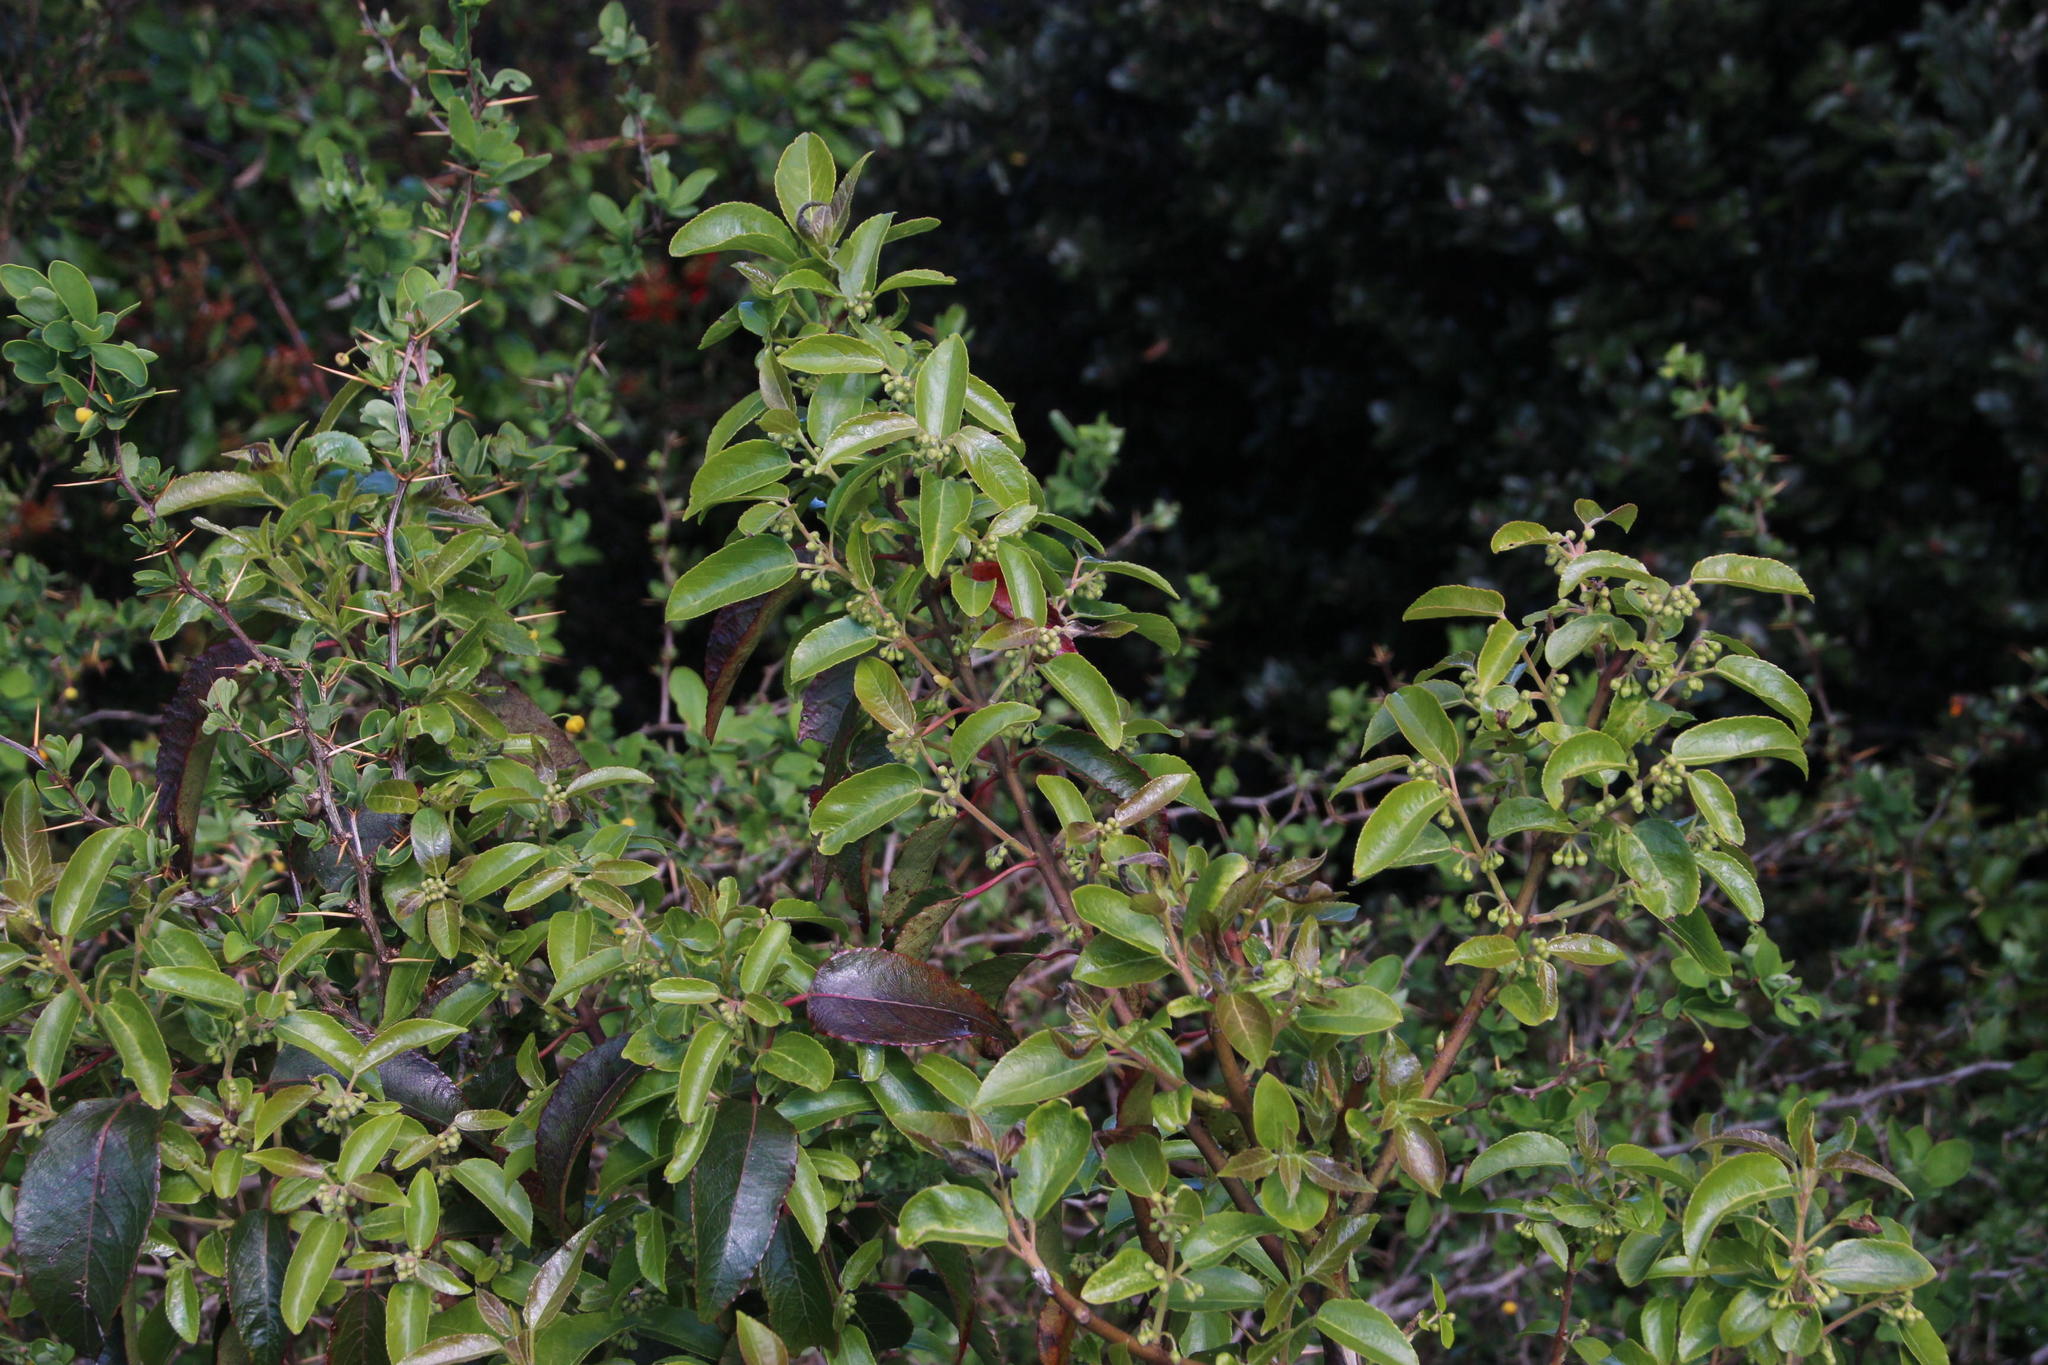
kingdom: Plantae
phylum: Tracheophyta
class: Magnoliopsida
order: Oxalidales
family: Elaeocarpaceae
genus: Aristotelia
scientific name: Aristotelia chilensis
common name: Maquei
